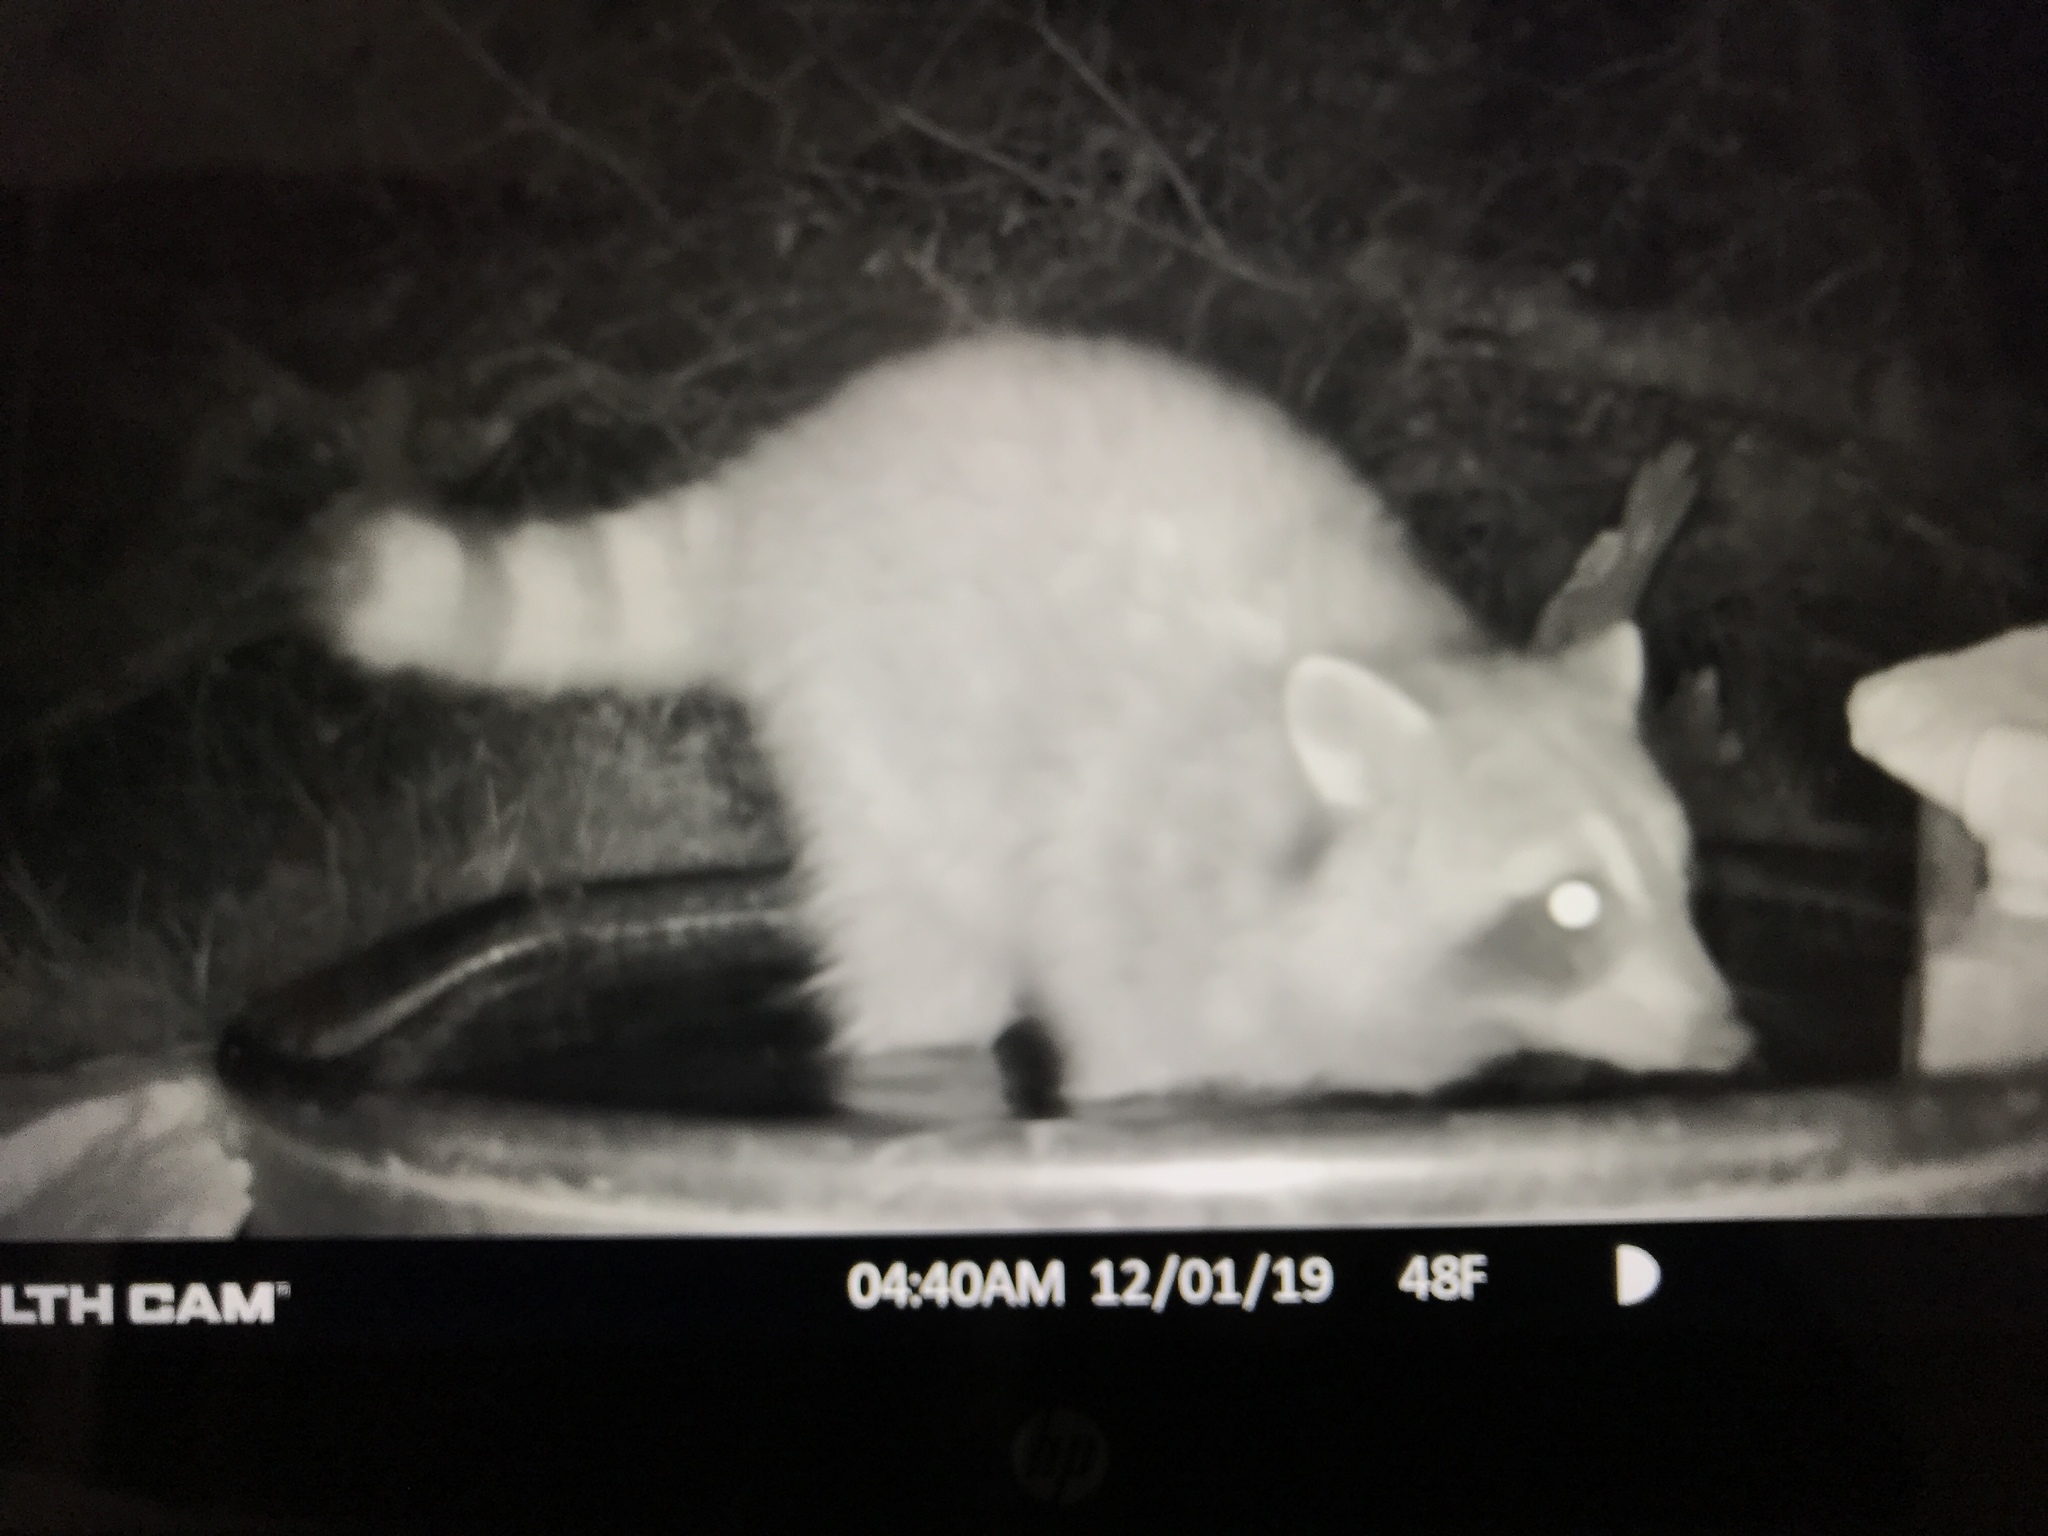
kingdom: Animalia
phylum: Chordata
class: Mammalia
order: Carnivora
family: Procyonidae
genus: Procyon
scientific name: Procyon lotor
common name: Raccoon
